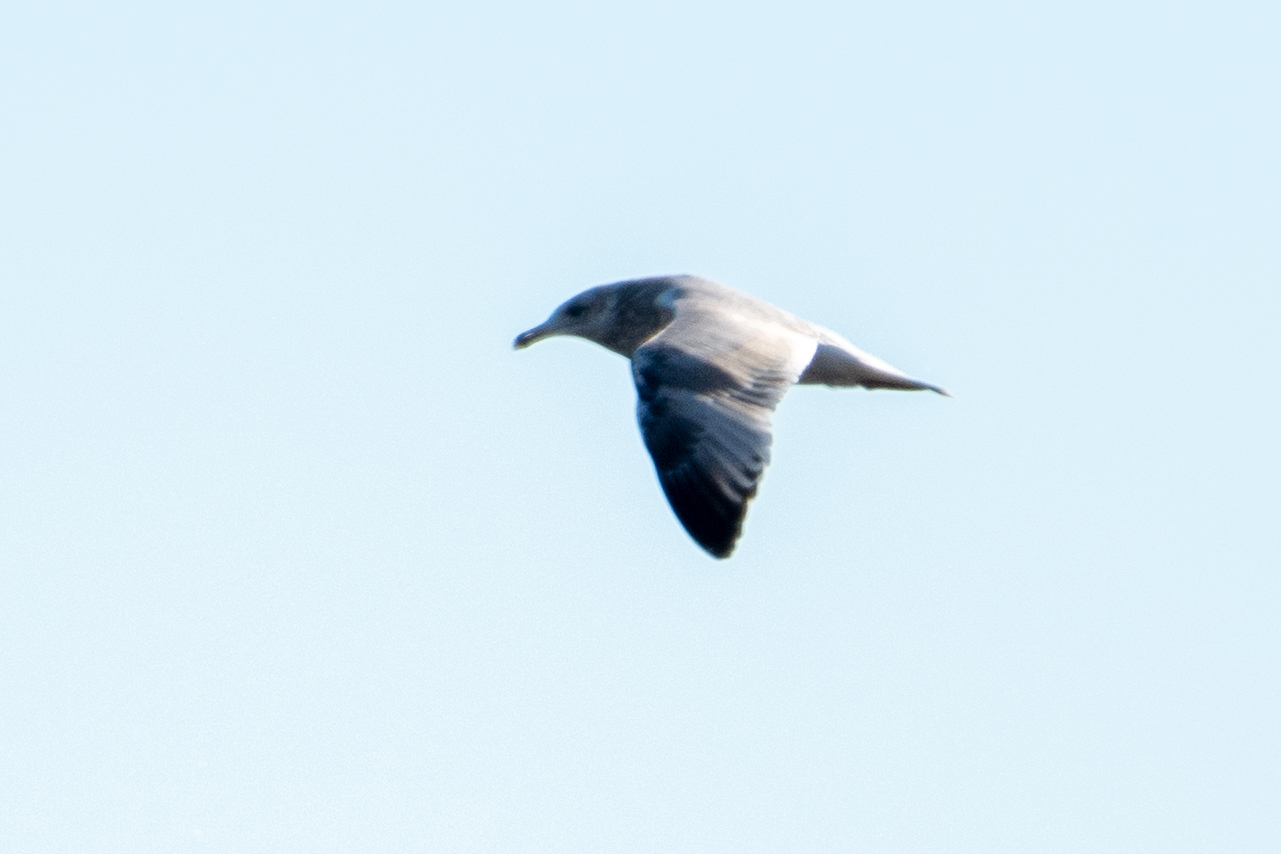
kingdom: Animalia
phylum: Chordata
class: Aves
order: Charadriiformes
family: Laridae
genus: Larus
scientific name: Larus californicus
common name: California gull
